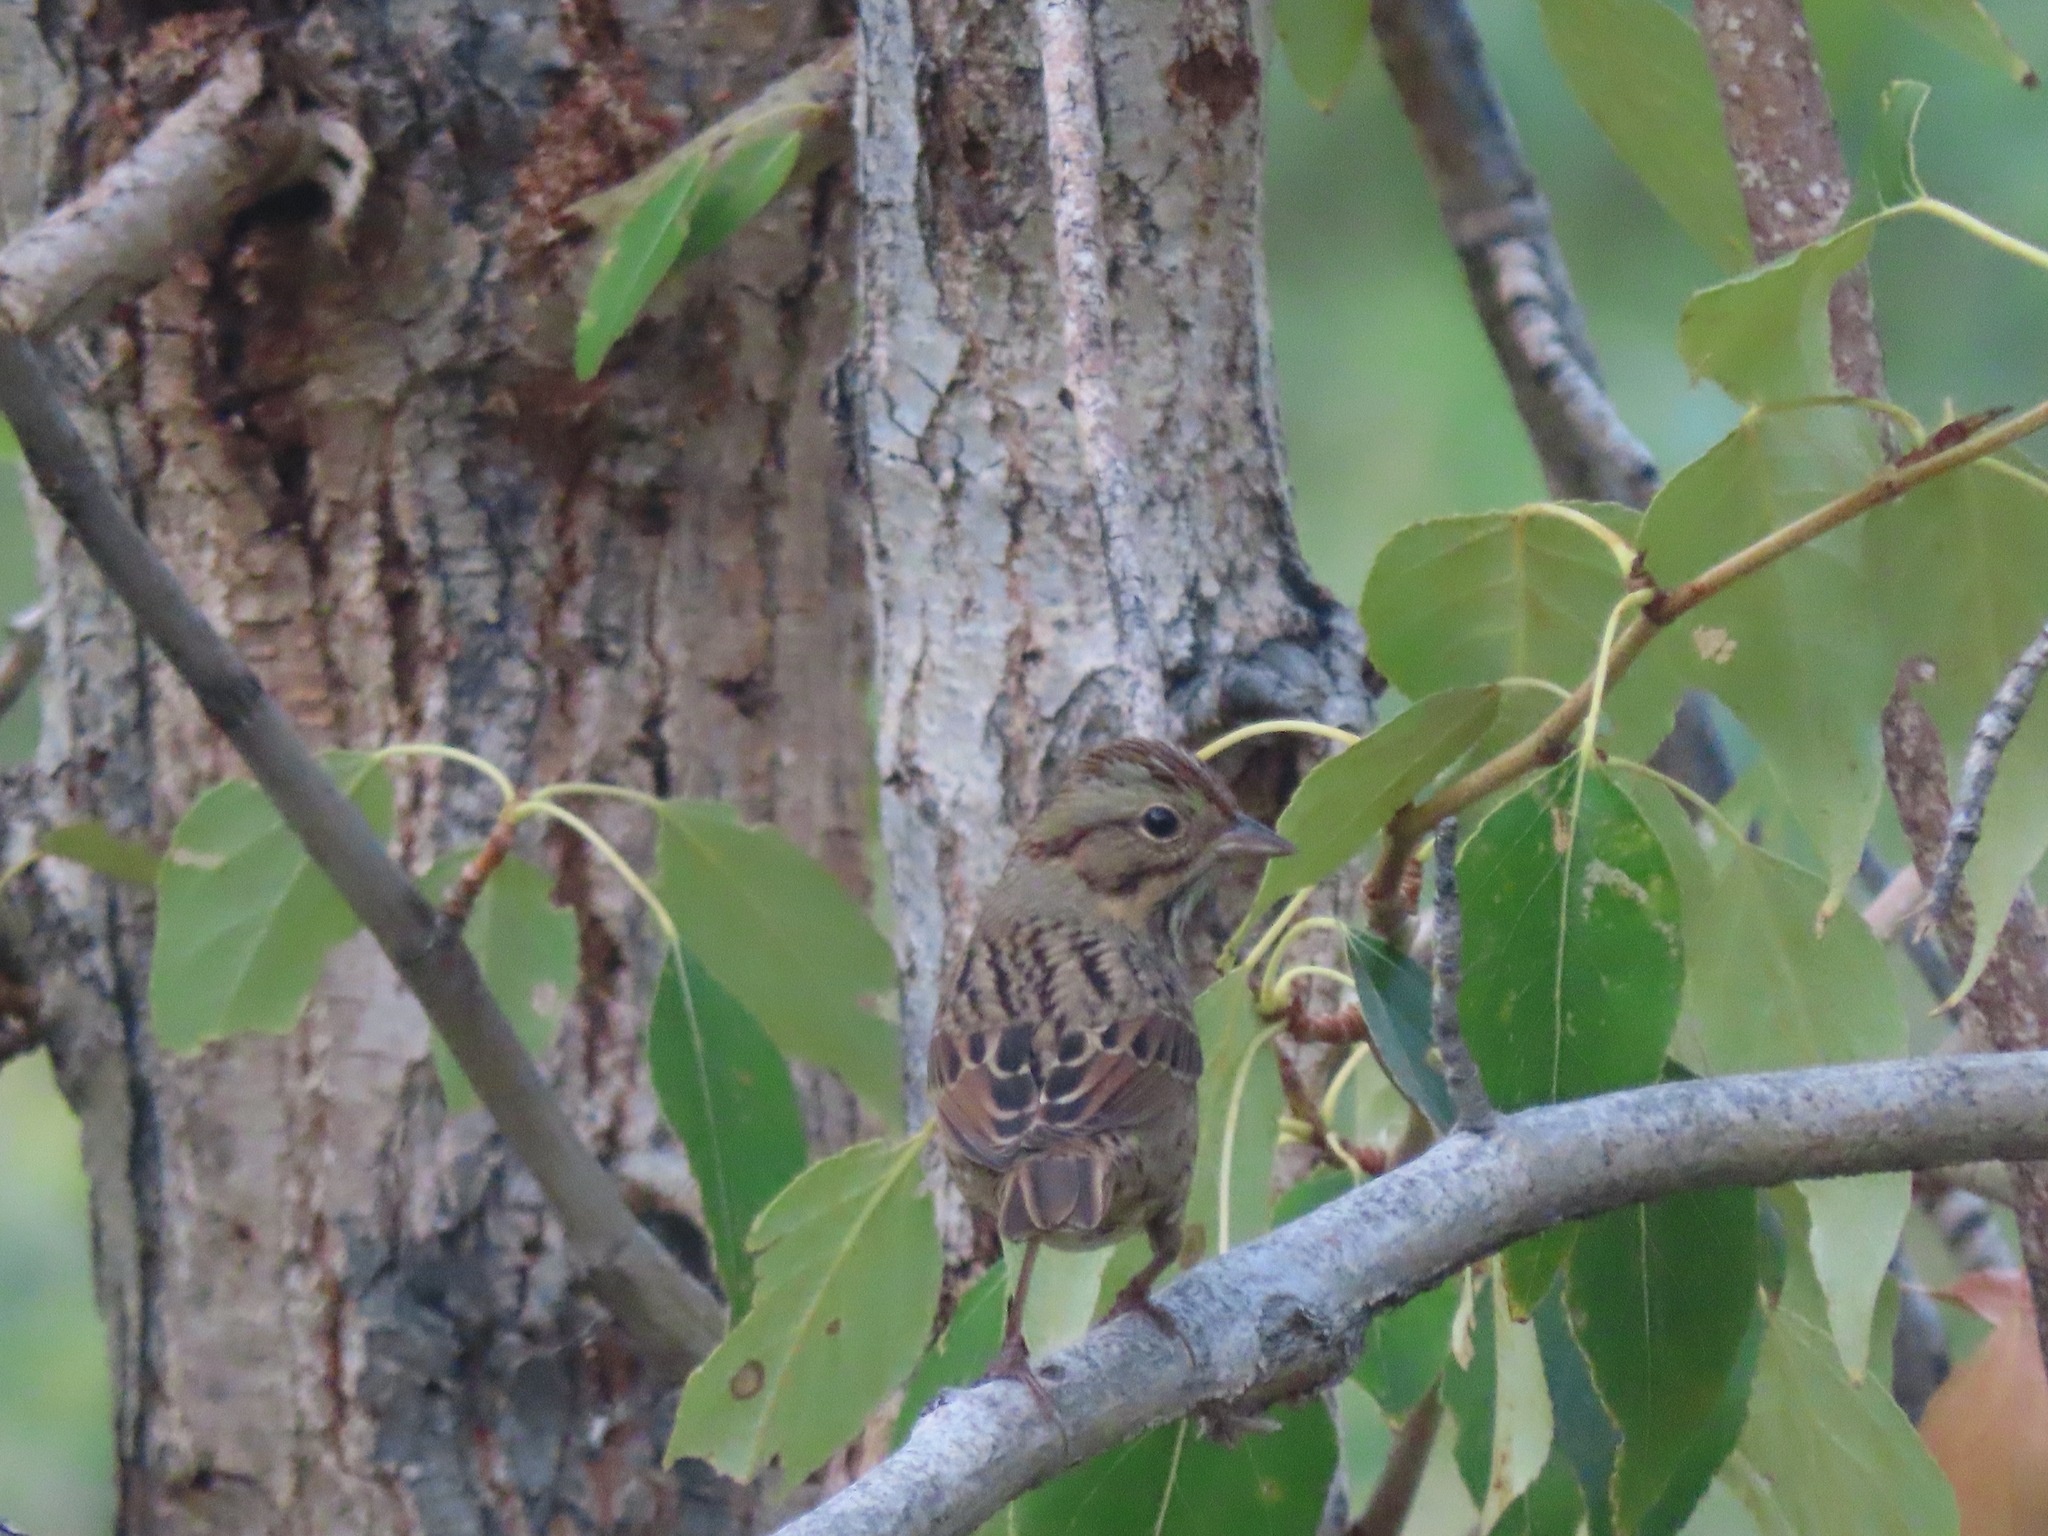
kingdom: Animalia
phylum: Chordata
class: Aves
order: Passeriformes
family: Passerellidae
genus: Melospiza
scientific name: Melospiza lincolnii
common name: Lincoln's sparrow
